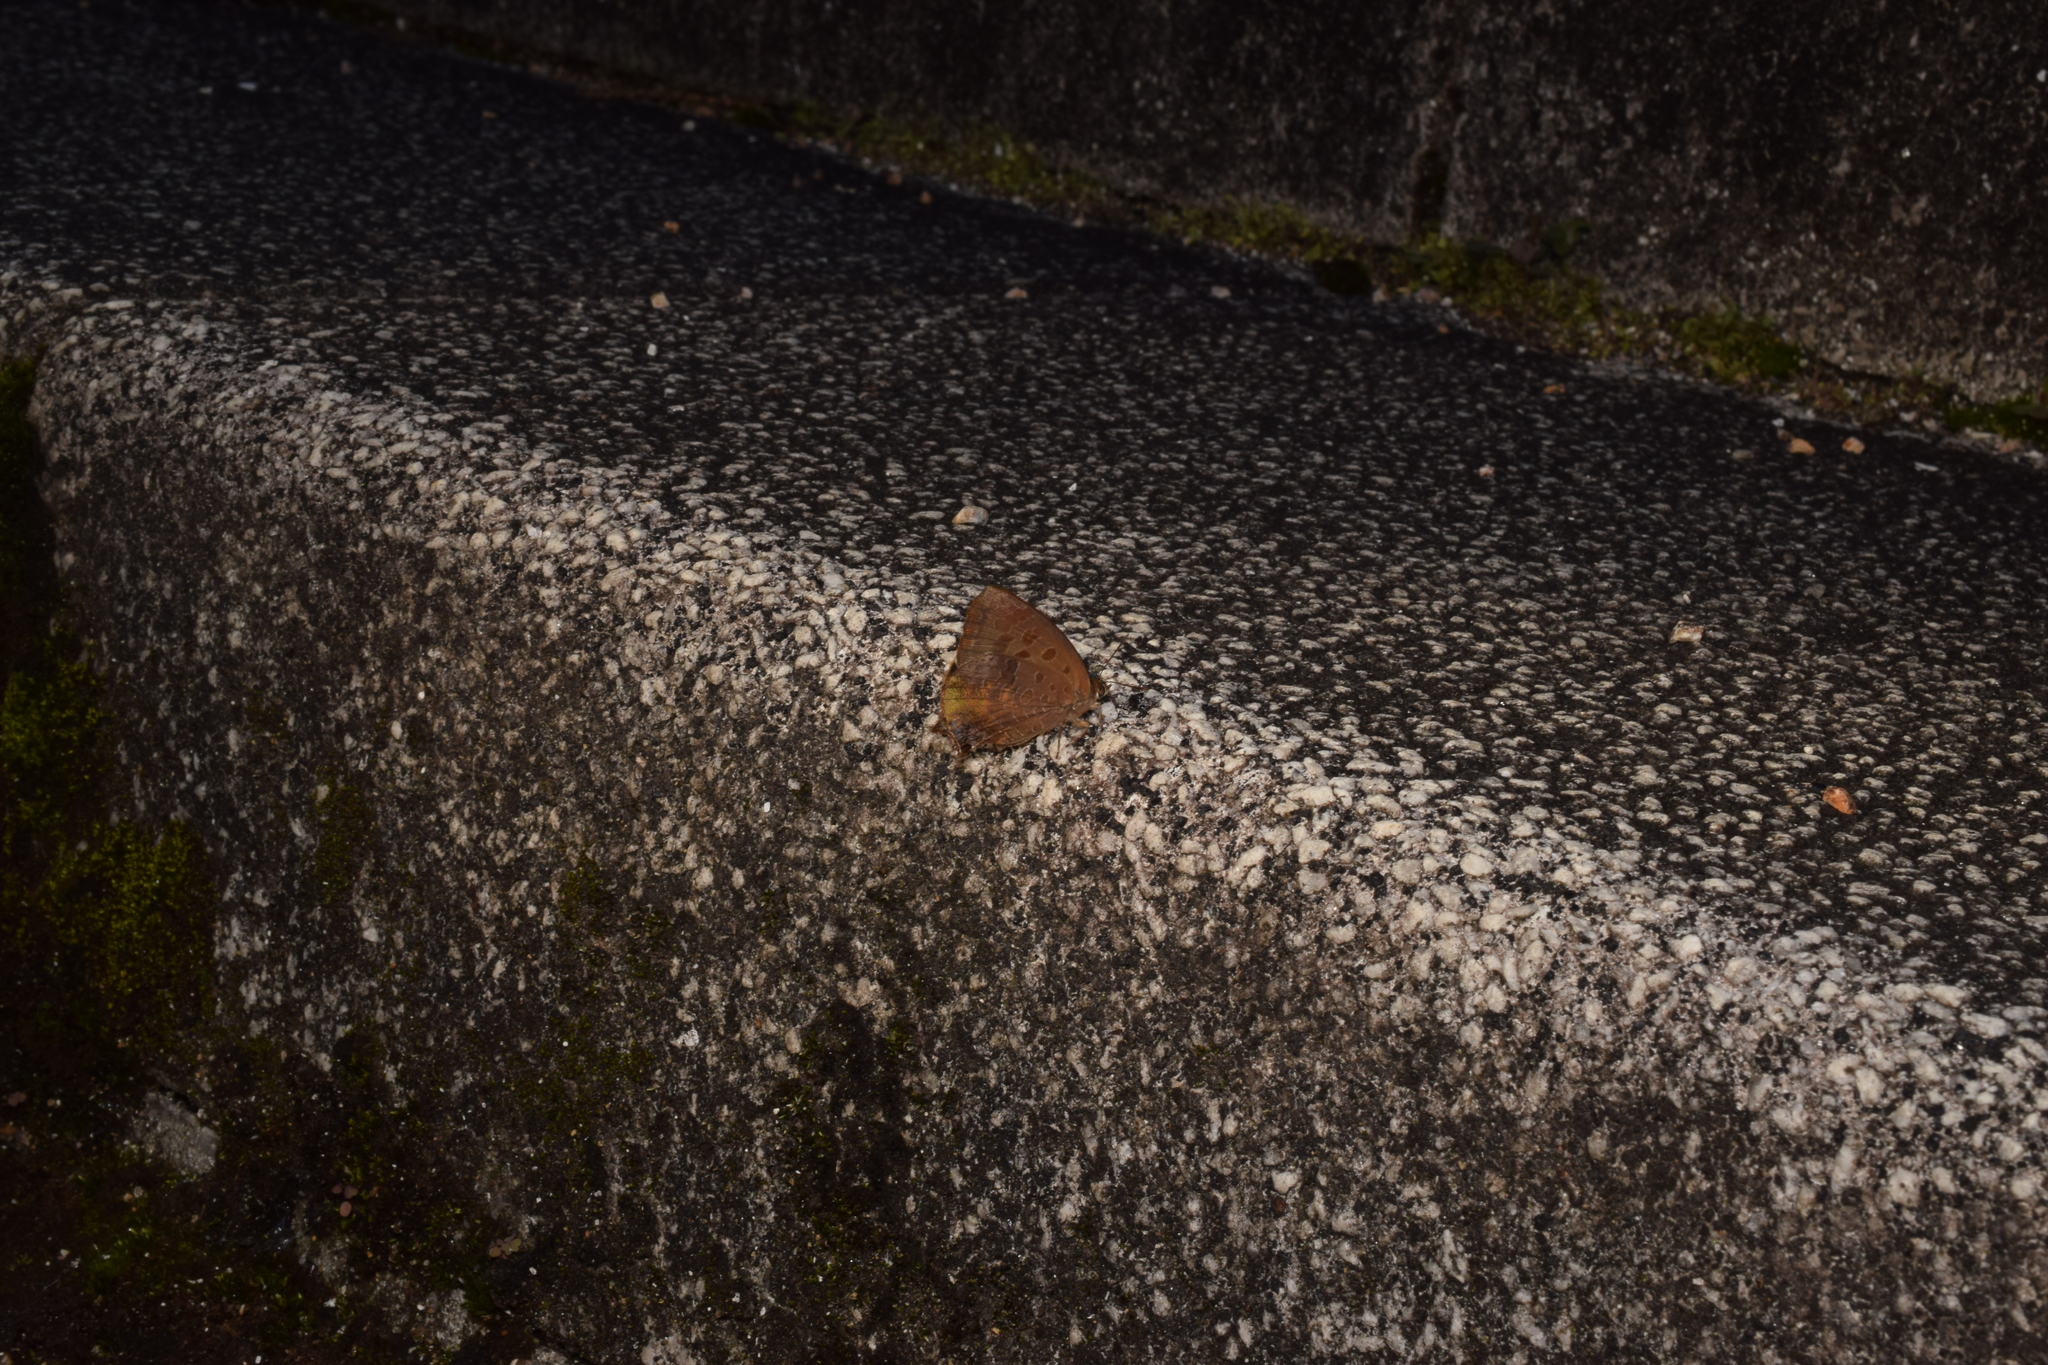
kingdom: Animalia
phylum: Arthropoda
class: Insecta
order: Lepidoptera
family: Lycaenidae
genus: Arhopala
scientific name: Arhopala bazalus
